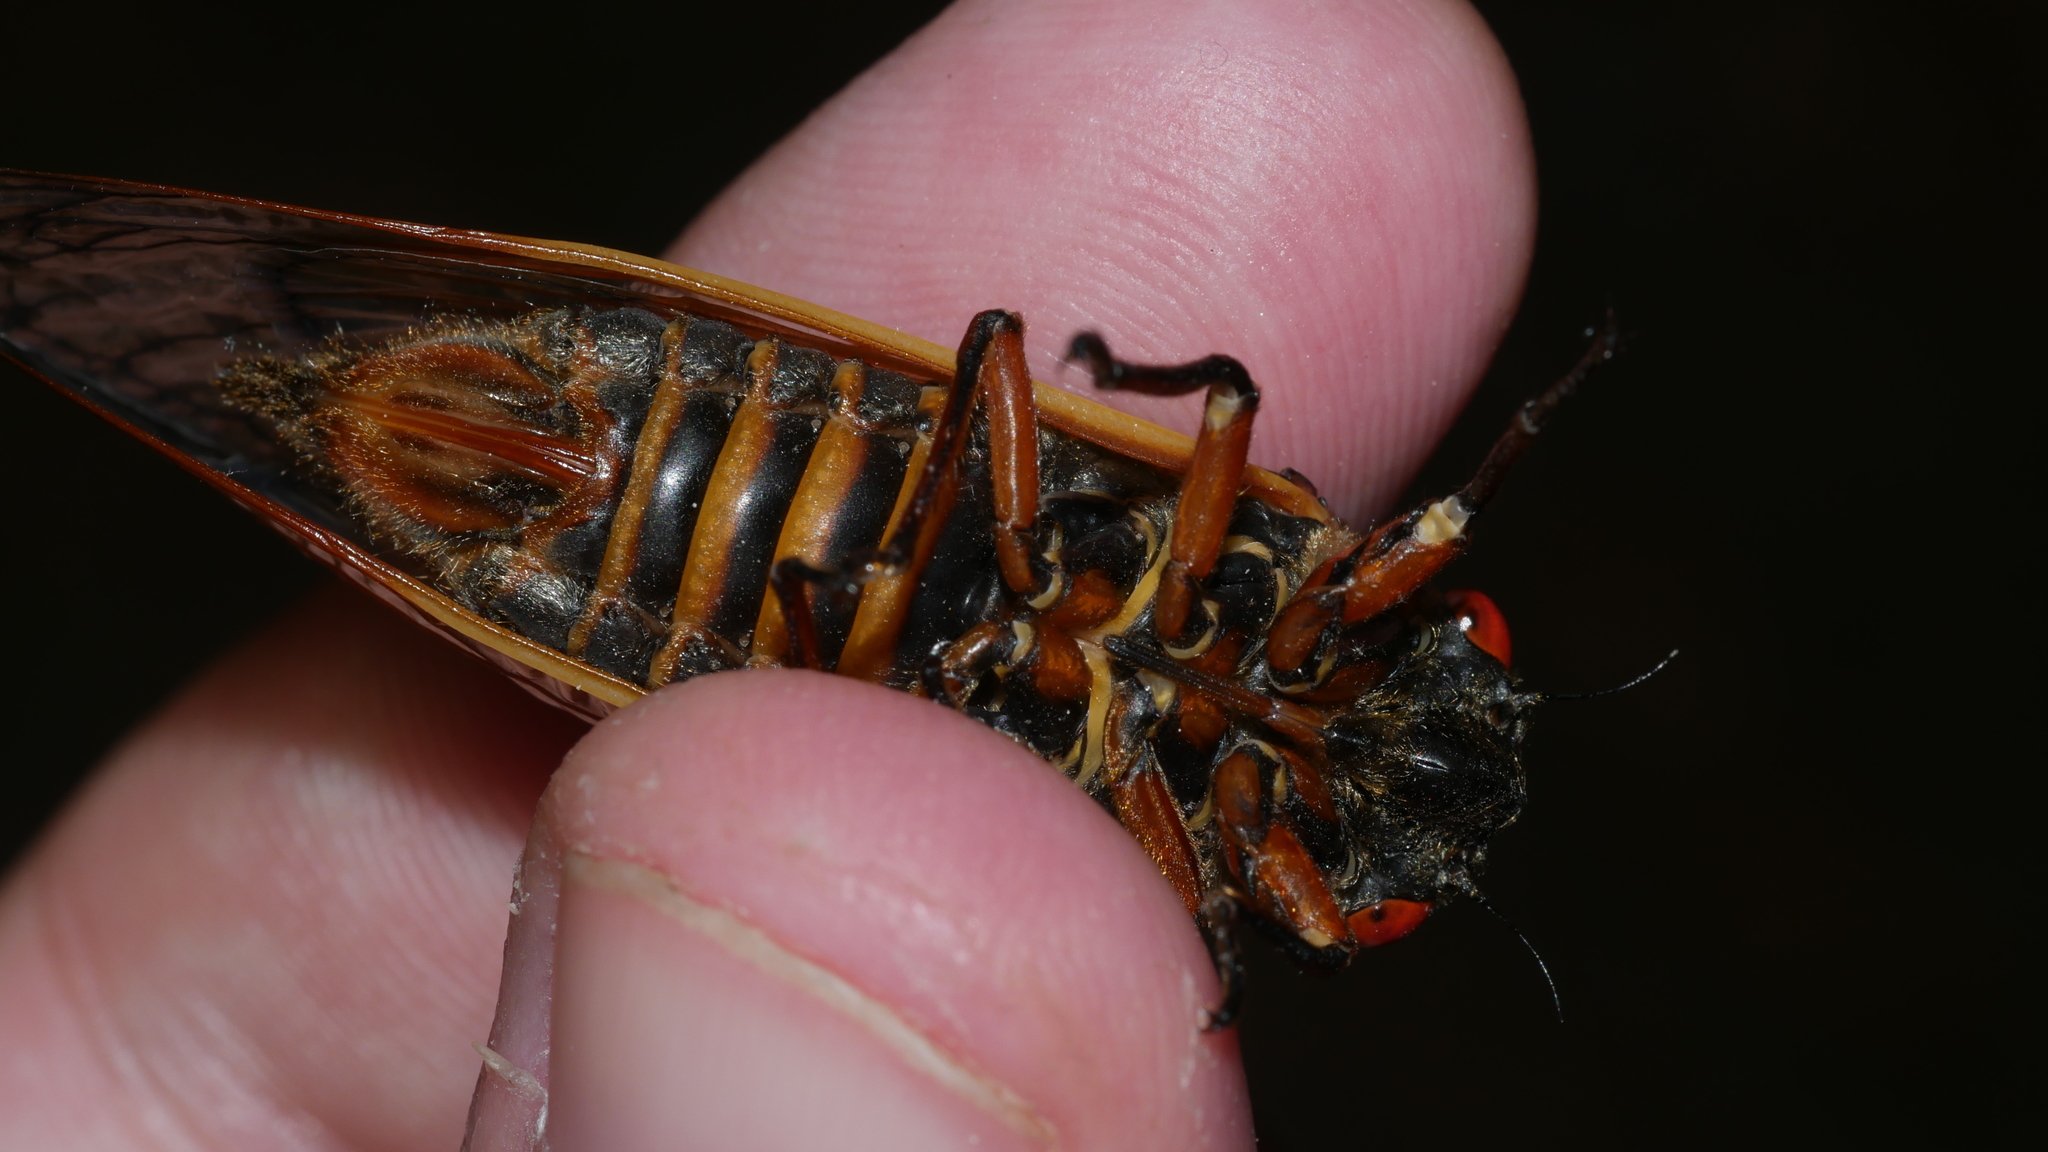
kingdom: Animalia
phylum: Arthropoda
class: Insecta
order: Hemiptera
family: Cicadidae
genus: Magicicada
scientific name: Magicicada septendecim
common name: Periodical cicada
